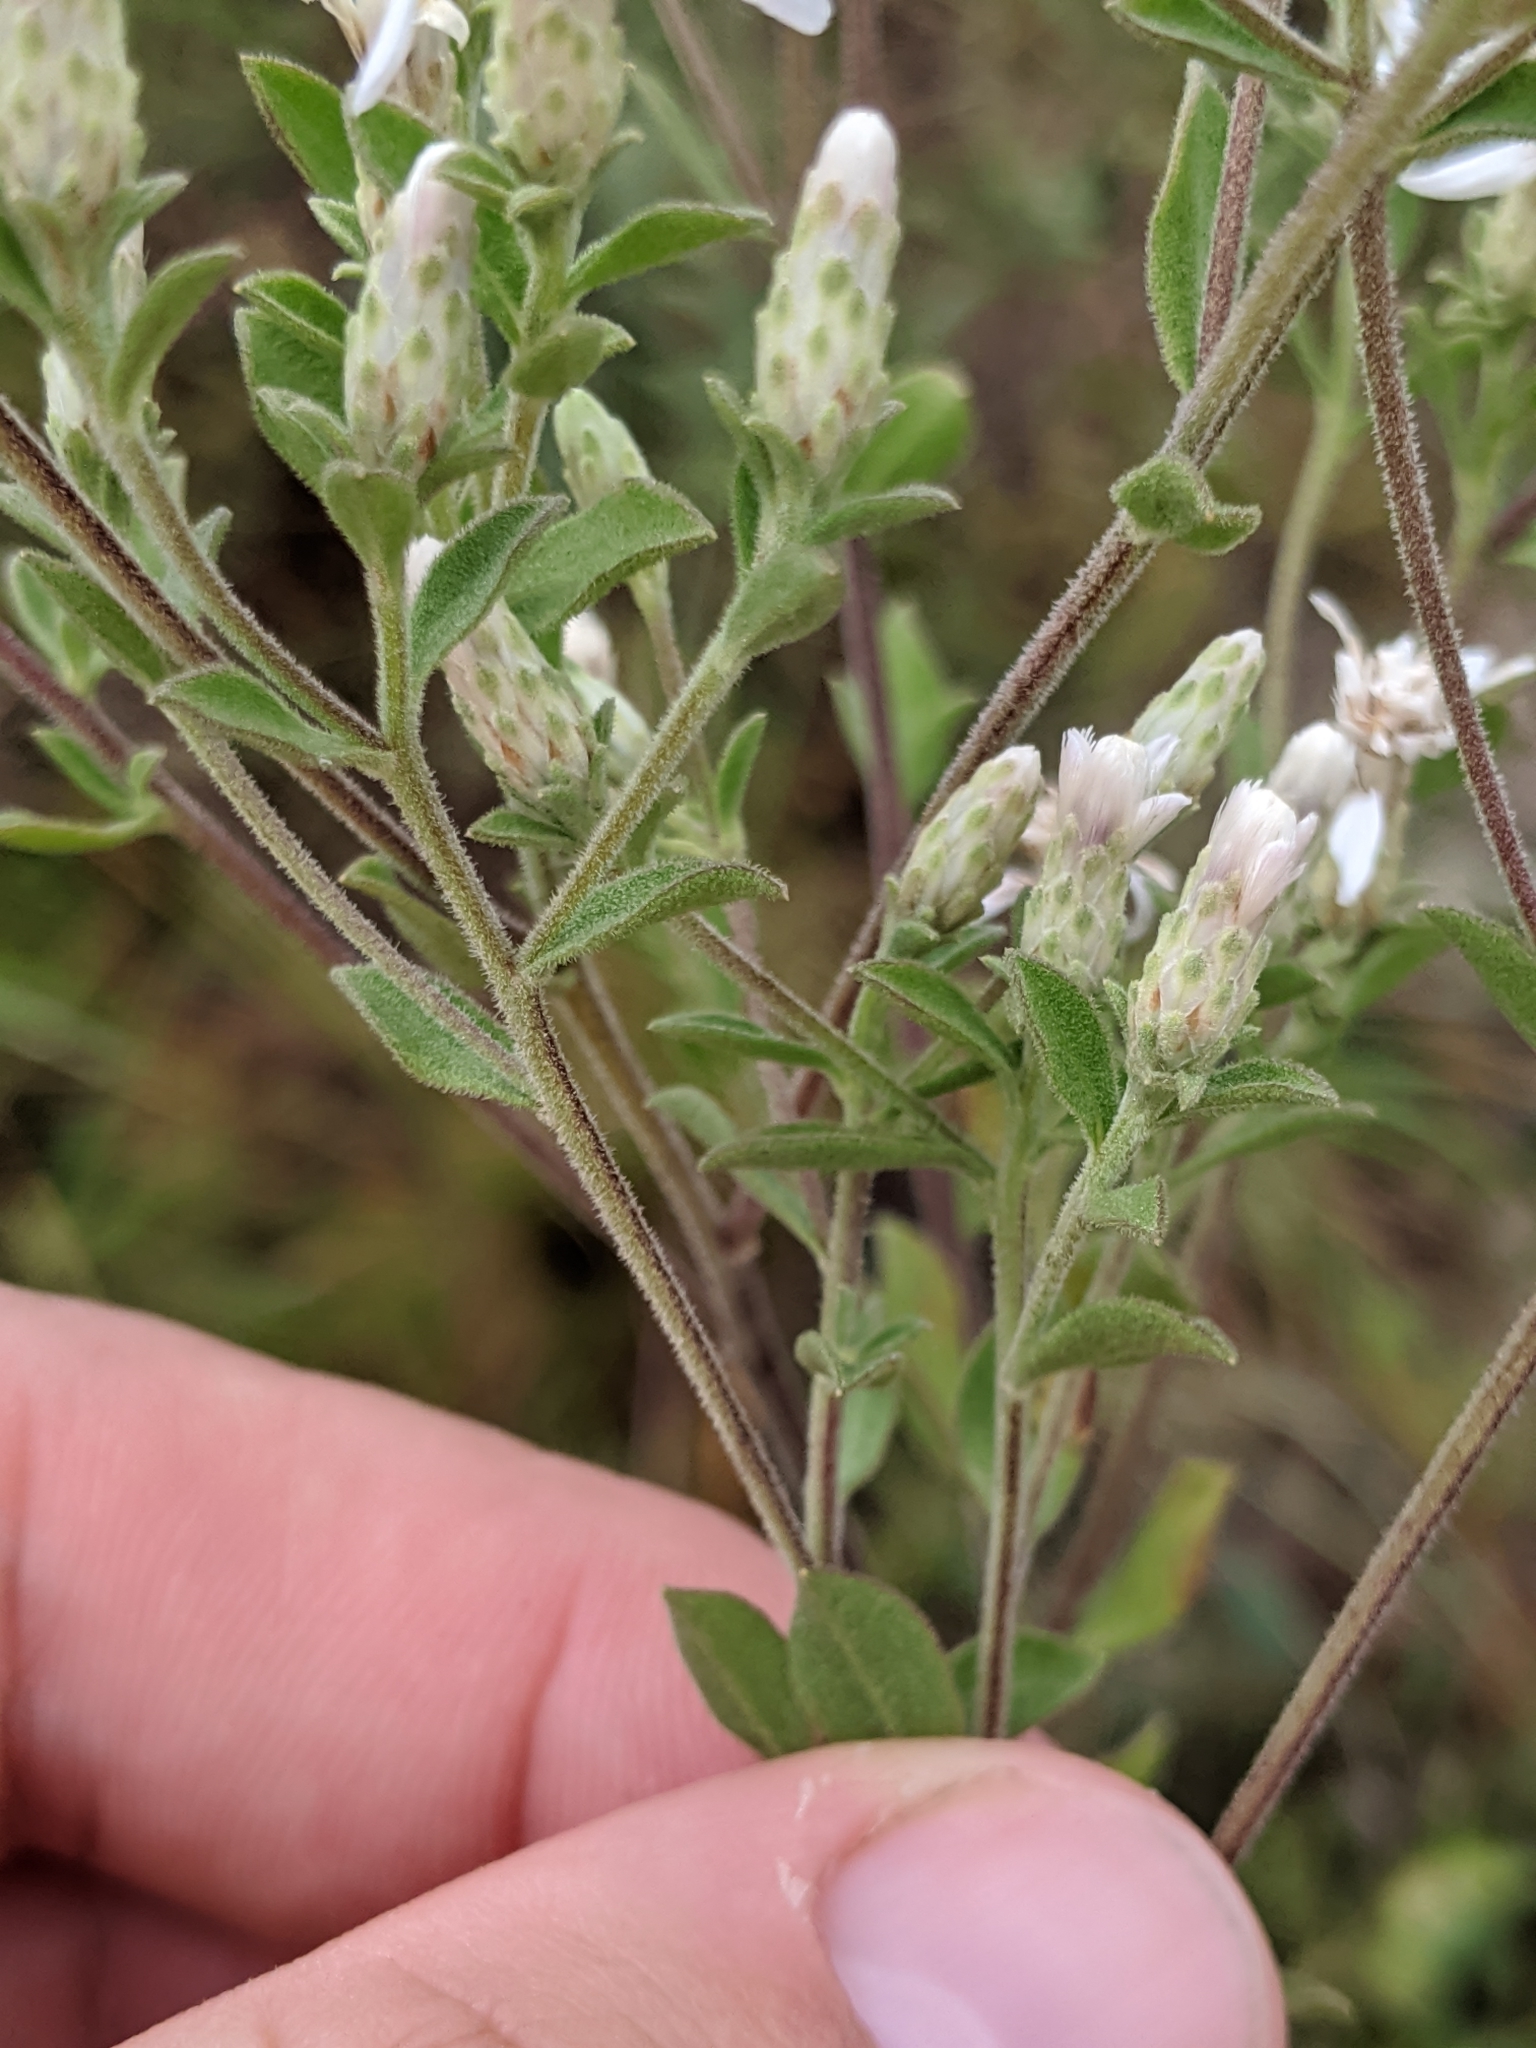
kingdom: Plantae
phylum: Tracheophyta
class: Magnoliopsida
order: Asterales
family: Asteraceae
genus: Sericocarpus
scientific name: Sericocarpus tortifolius
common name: Dixie aster
